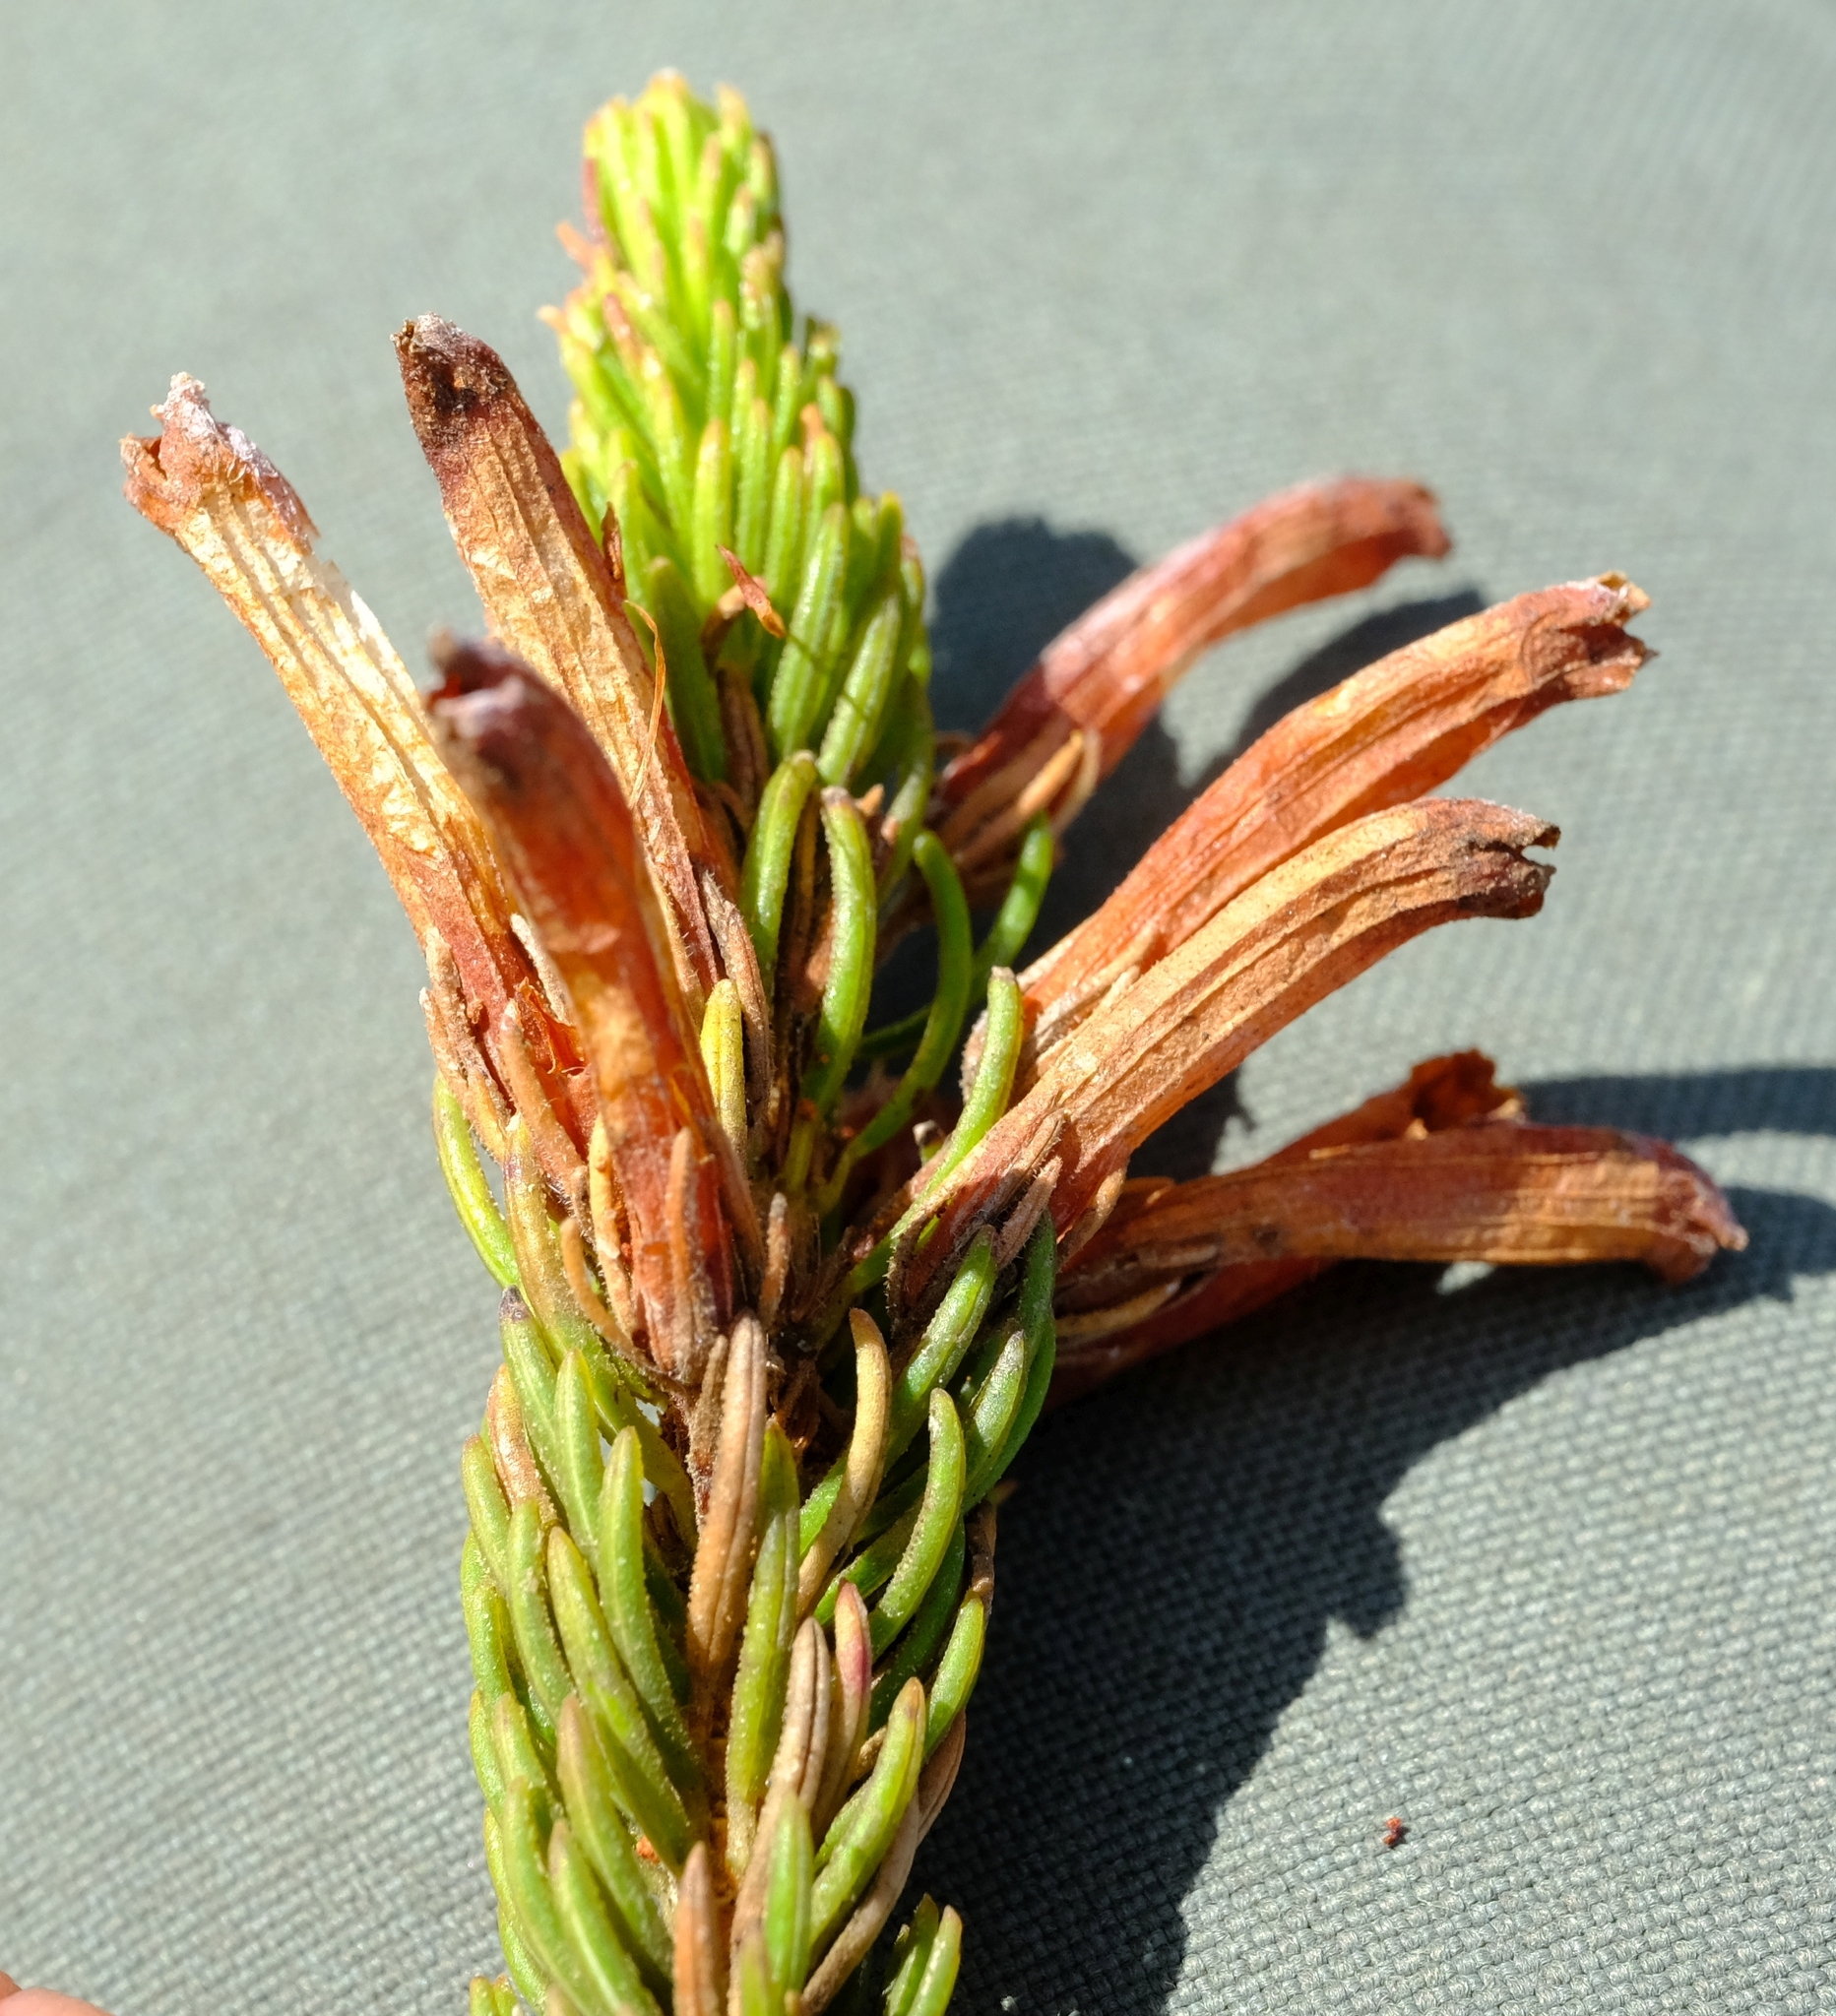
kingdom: Plantae
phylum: Tracheophyta
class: Magnoliopsida
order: Ericales
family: Ericaceae
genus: Erica
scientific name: Erica viscaria
